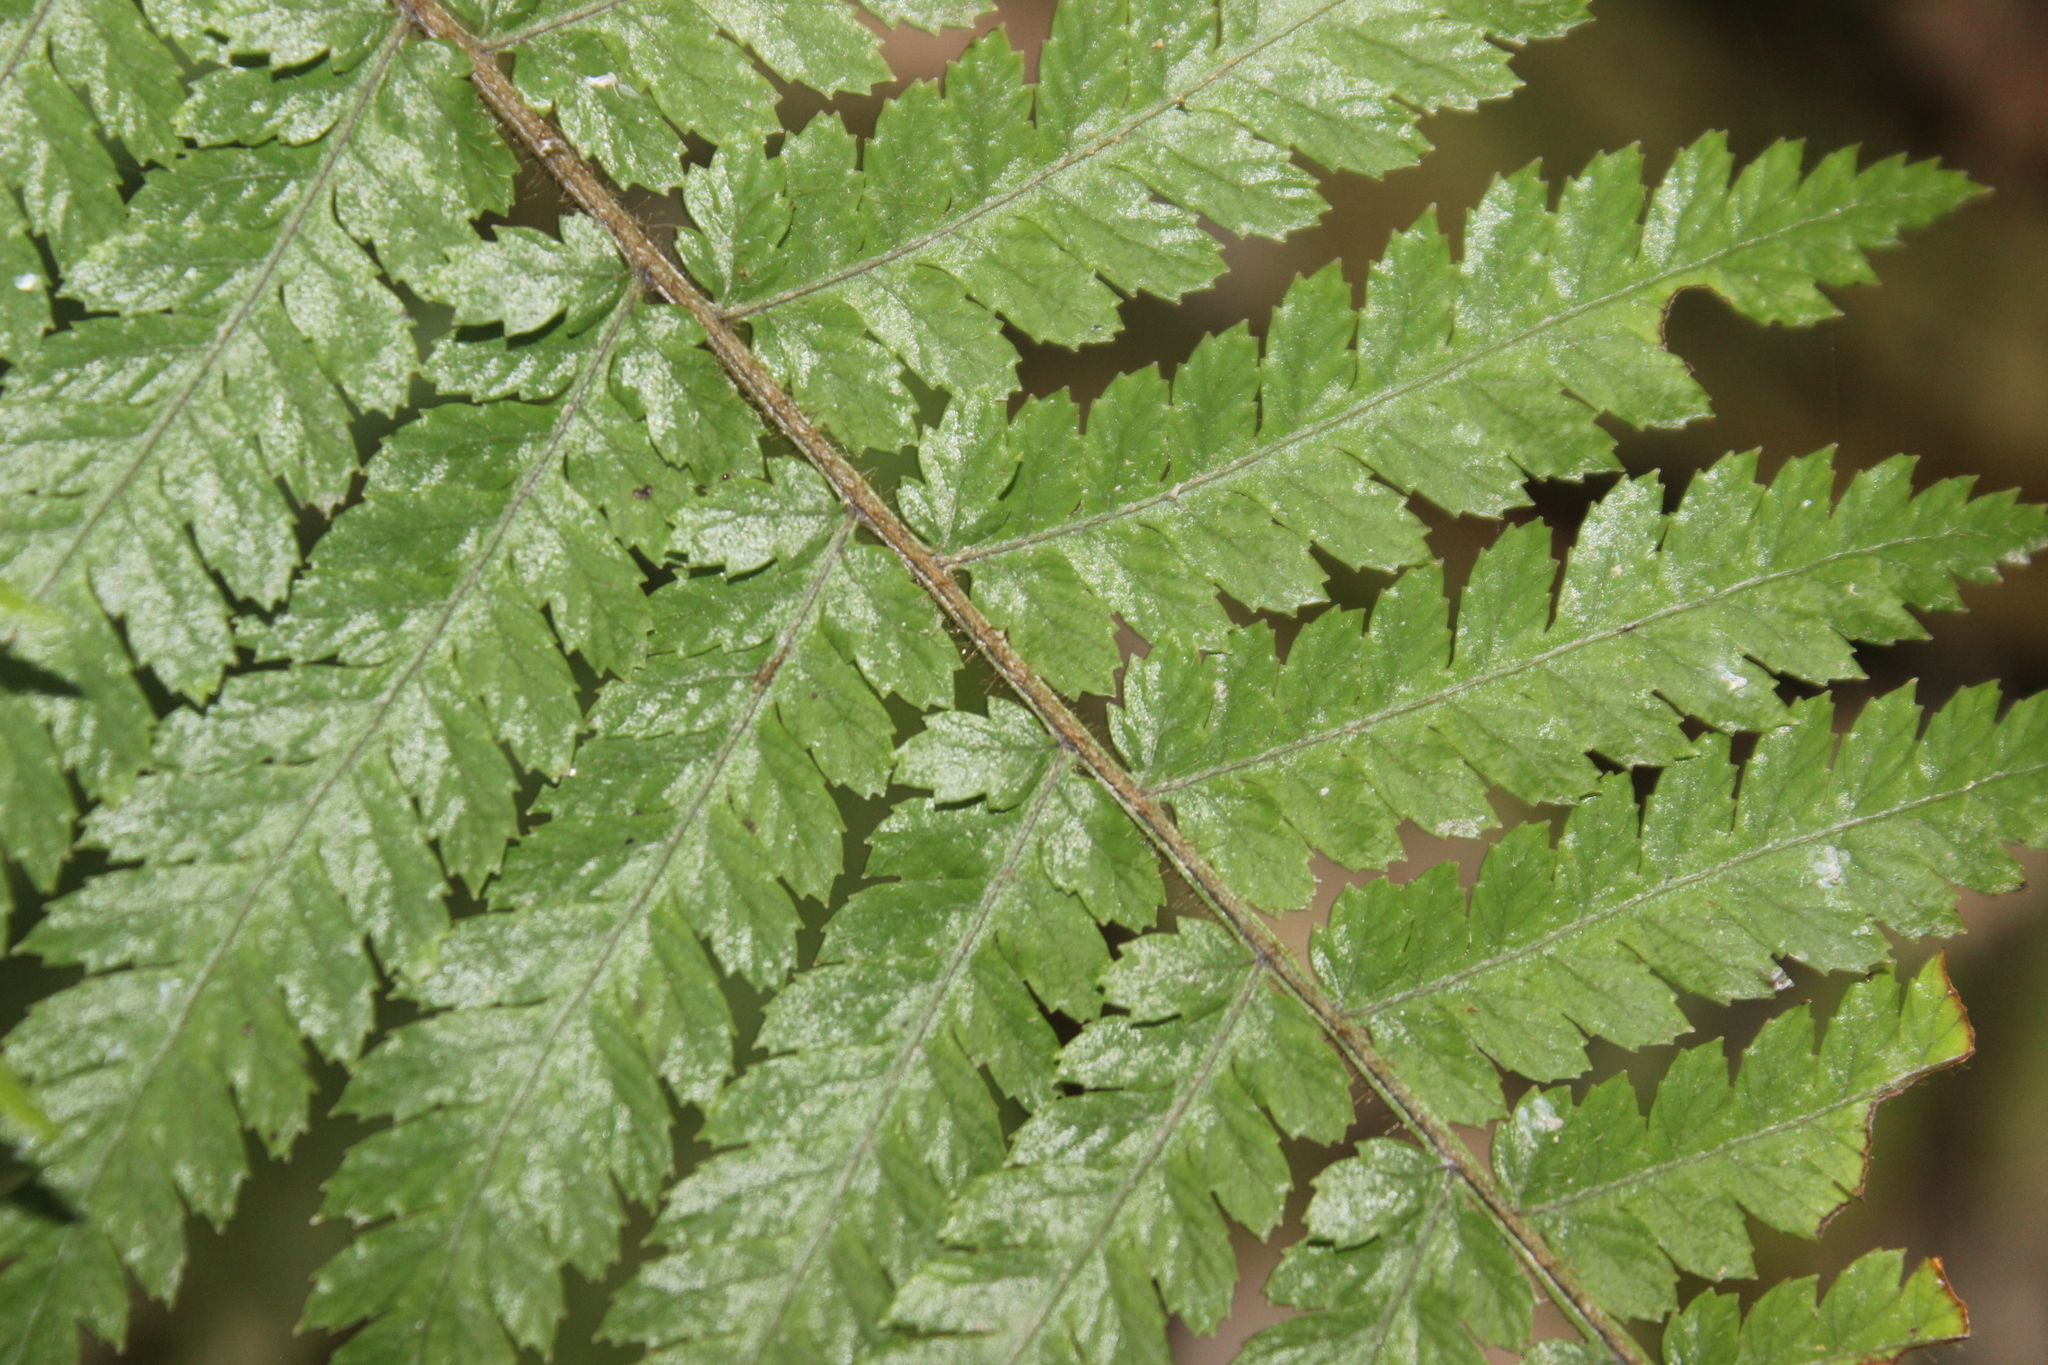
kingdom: Plantae
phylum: Tracheophyta
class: Polypodiopsida
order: Cyatheales
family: Dicksoniaceae
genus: Dicksonia
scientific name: Dicksonia squarrosa
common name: Hard treefern
